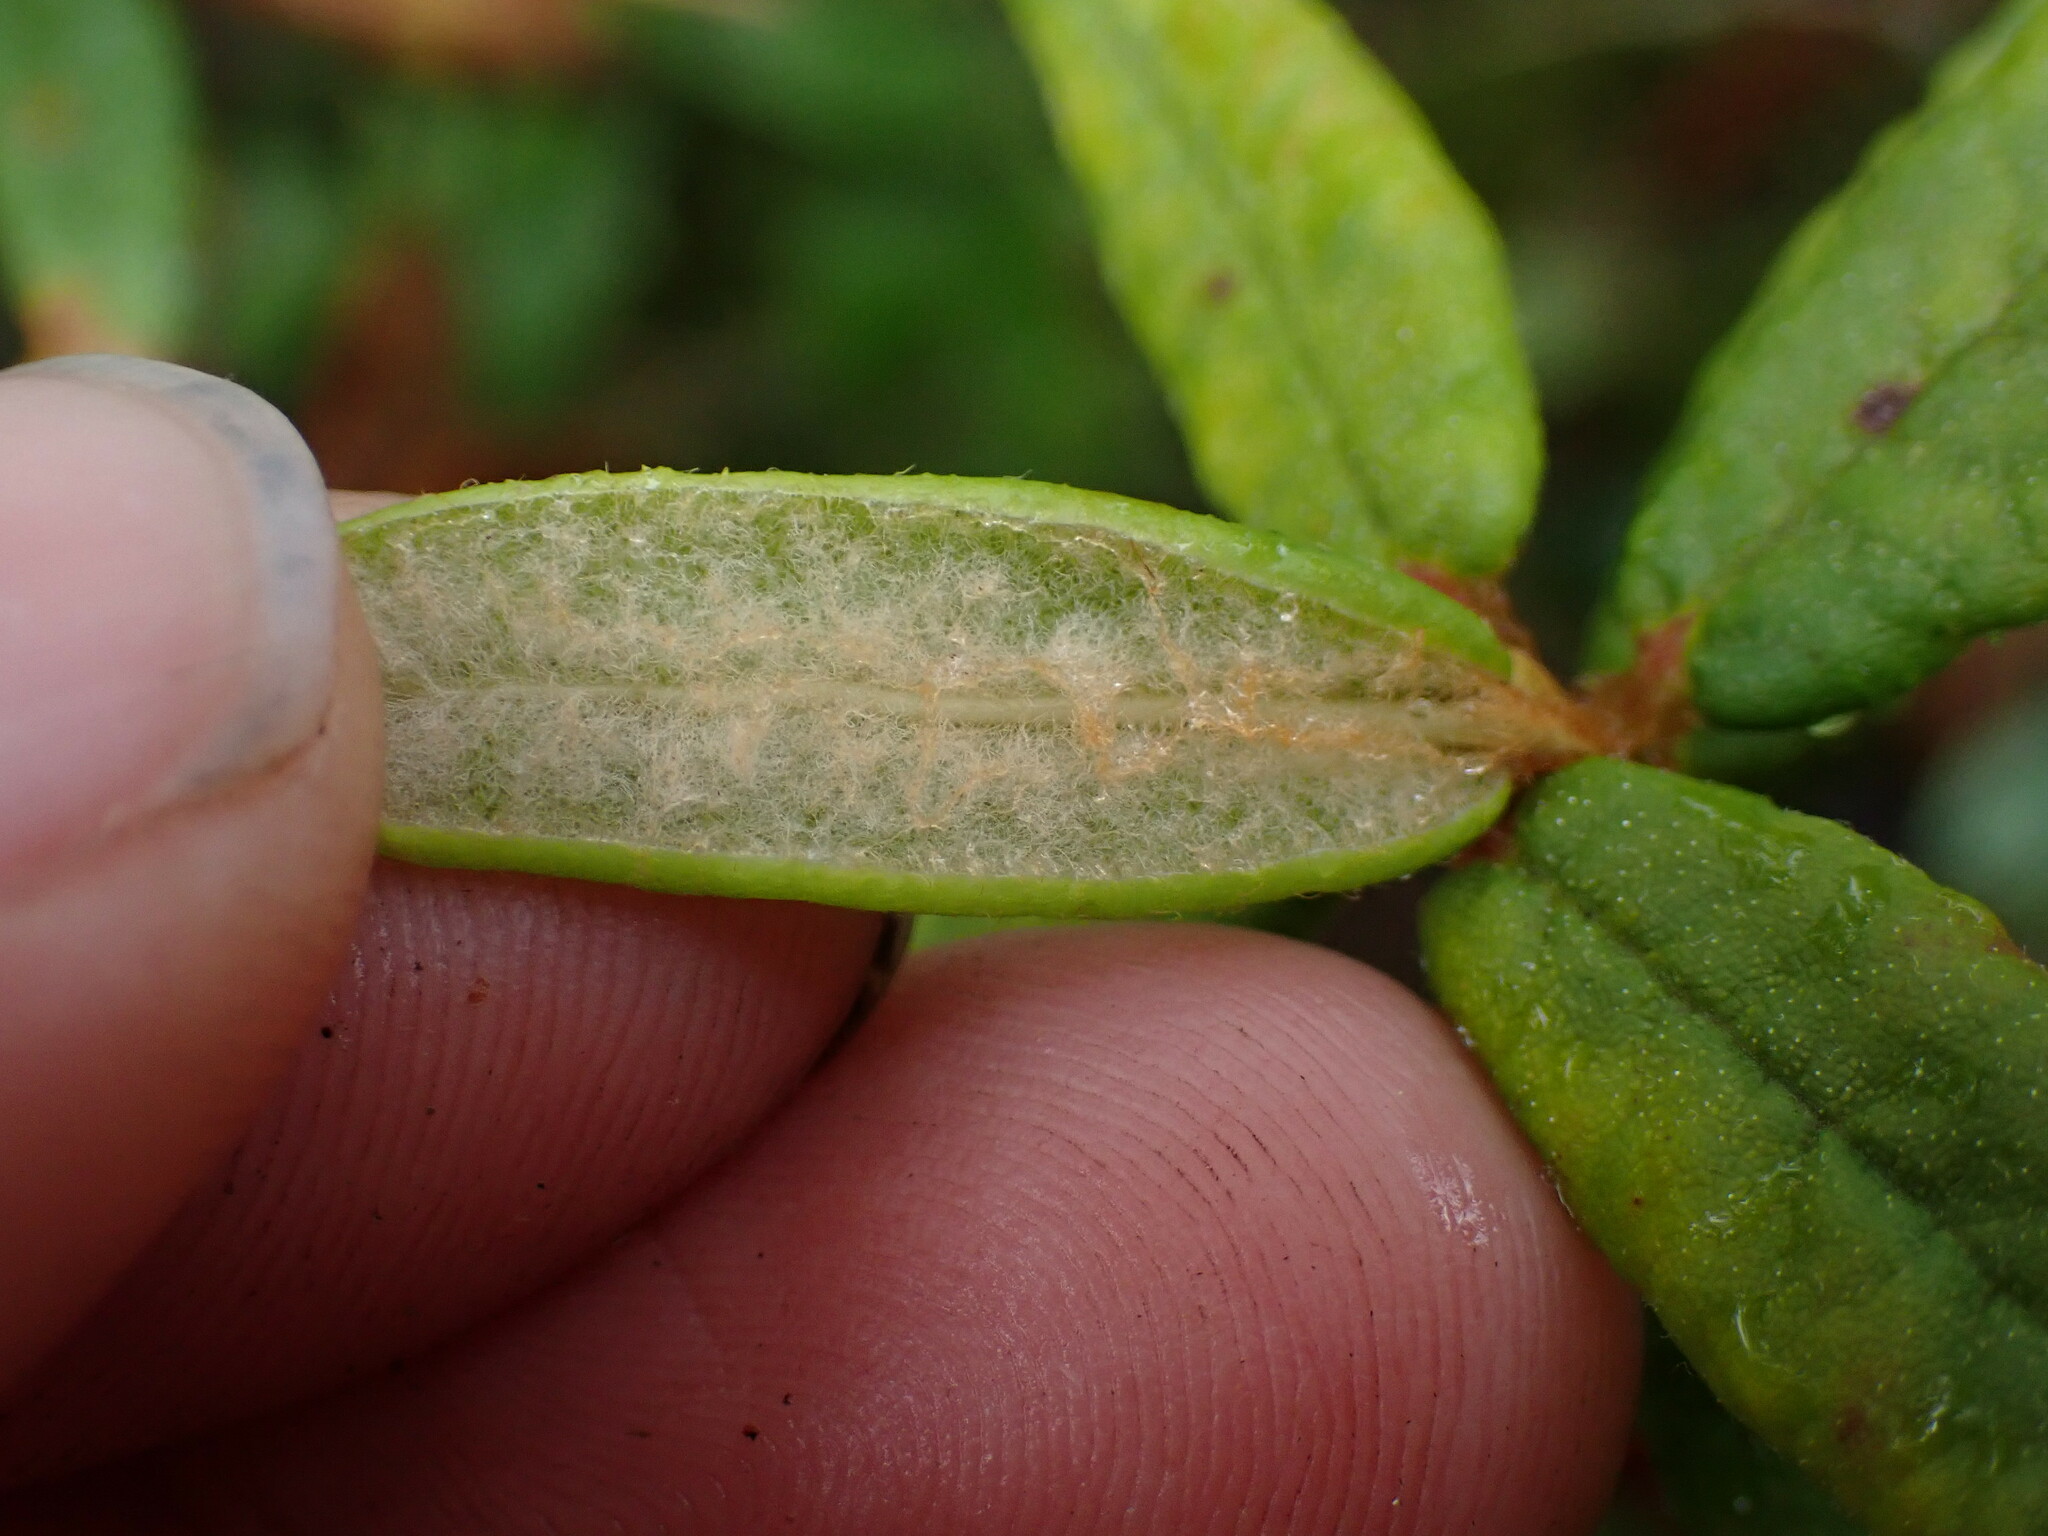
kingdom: Plantae
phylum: Tracheophyta
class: Magnoliopsida
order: Ericales
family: Ericaceae
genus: Rhododendron
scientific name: Rhododendron groenlandicum
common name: Bog labrador tea
